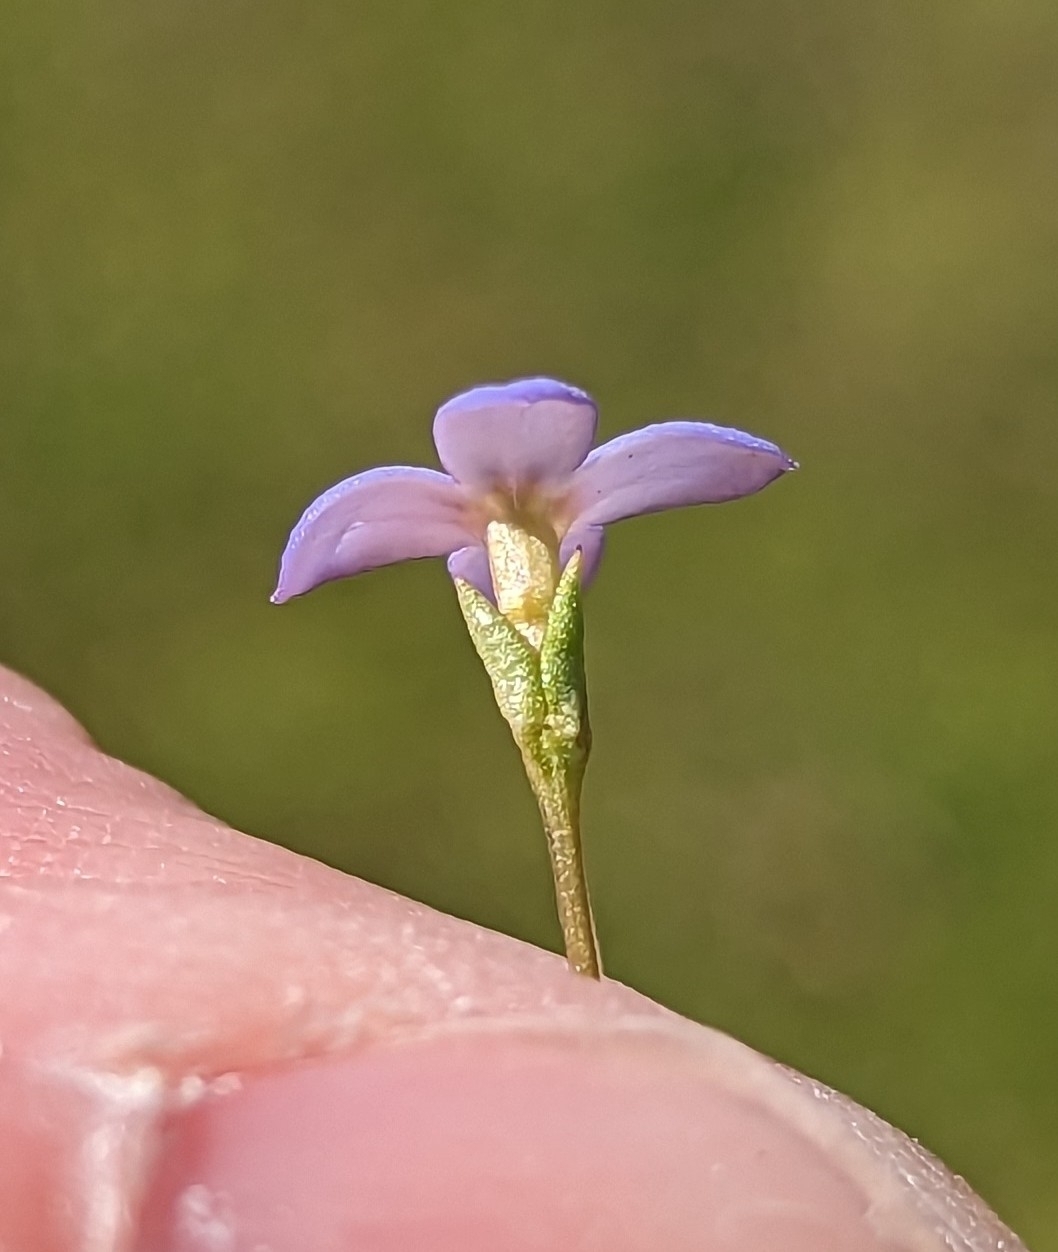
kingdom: Plantae
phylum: Tracheophyta
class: Magnoliopsida
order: Gentianales
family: Rubiaceae
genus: Houstonia
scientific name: Houstonia pusilla
